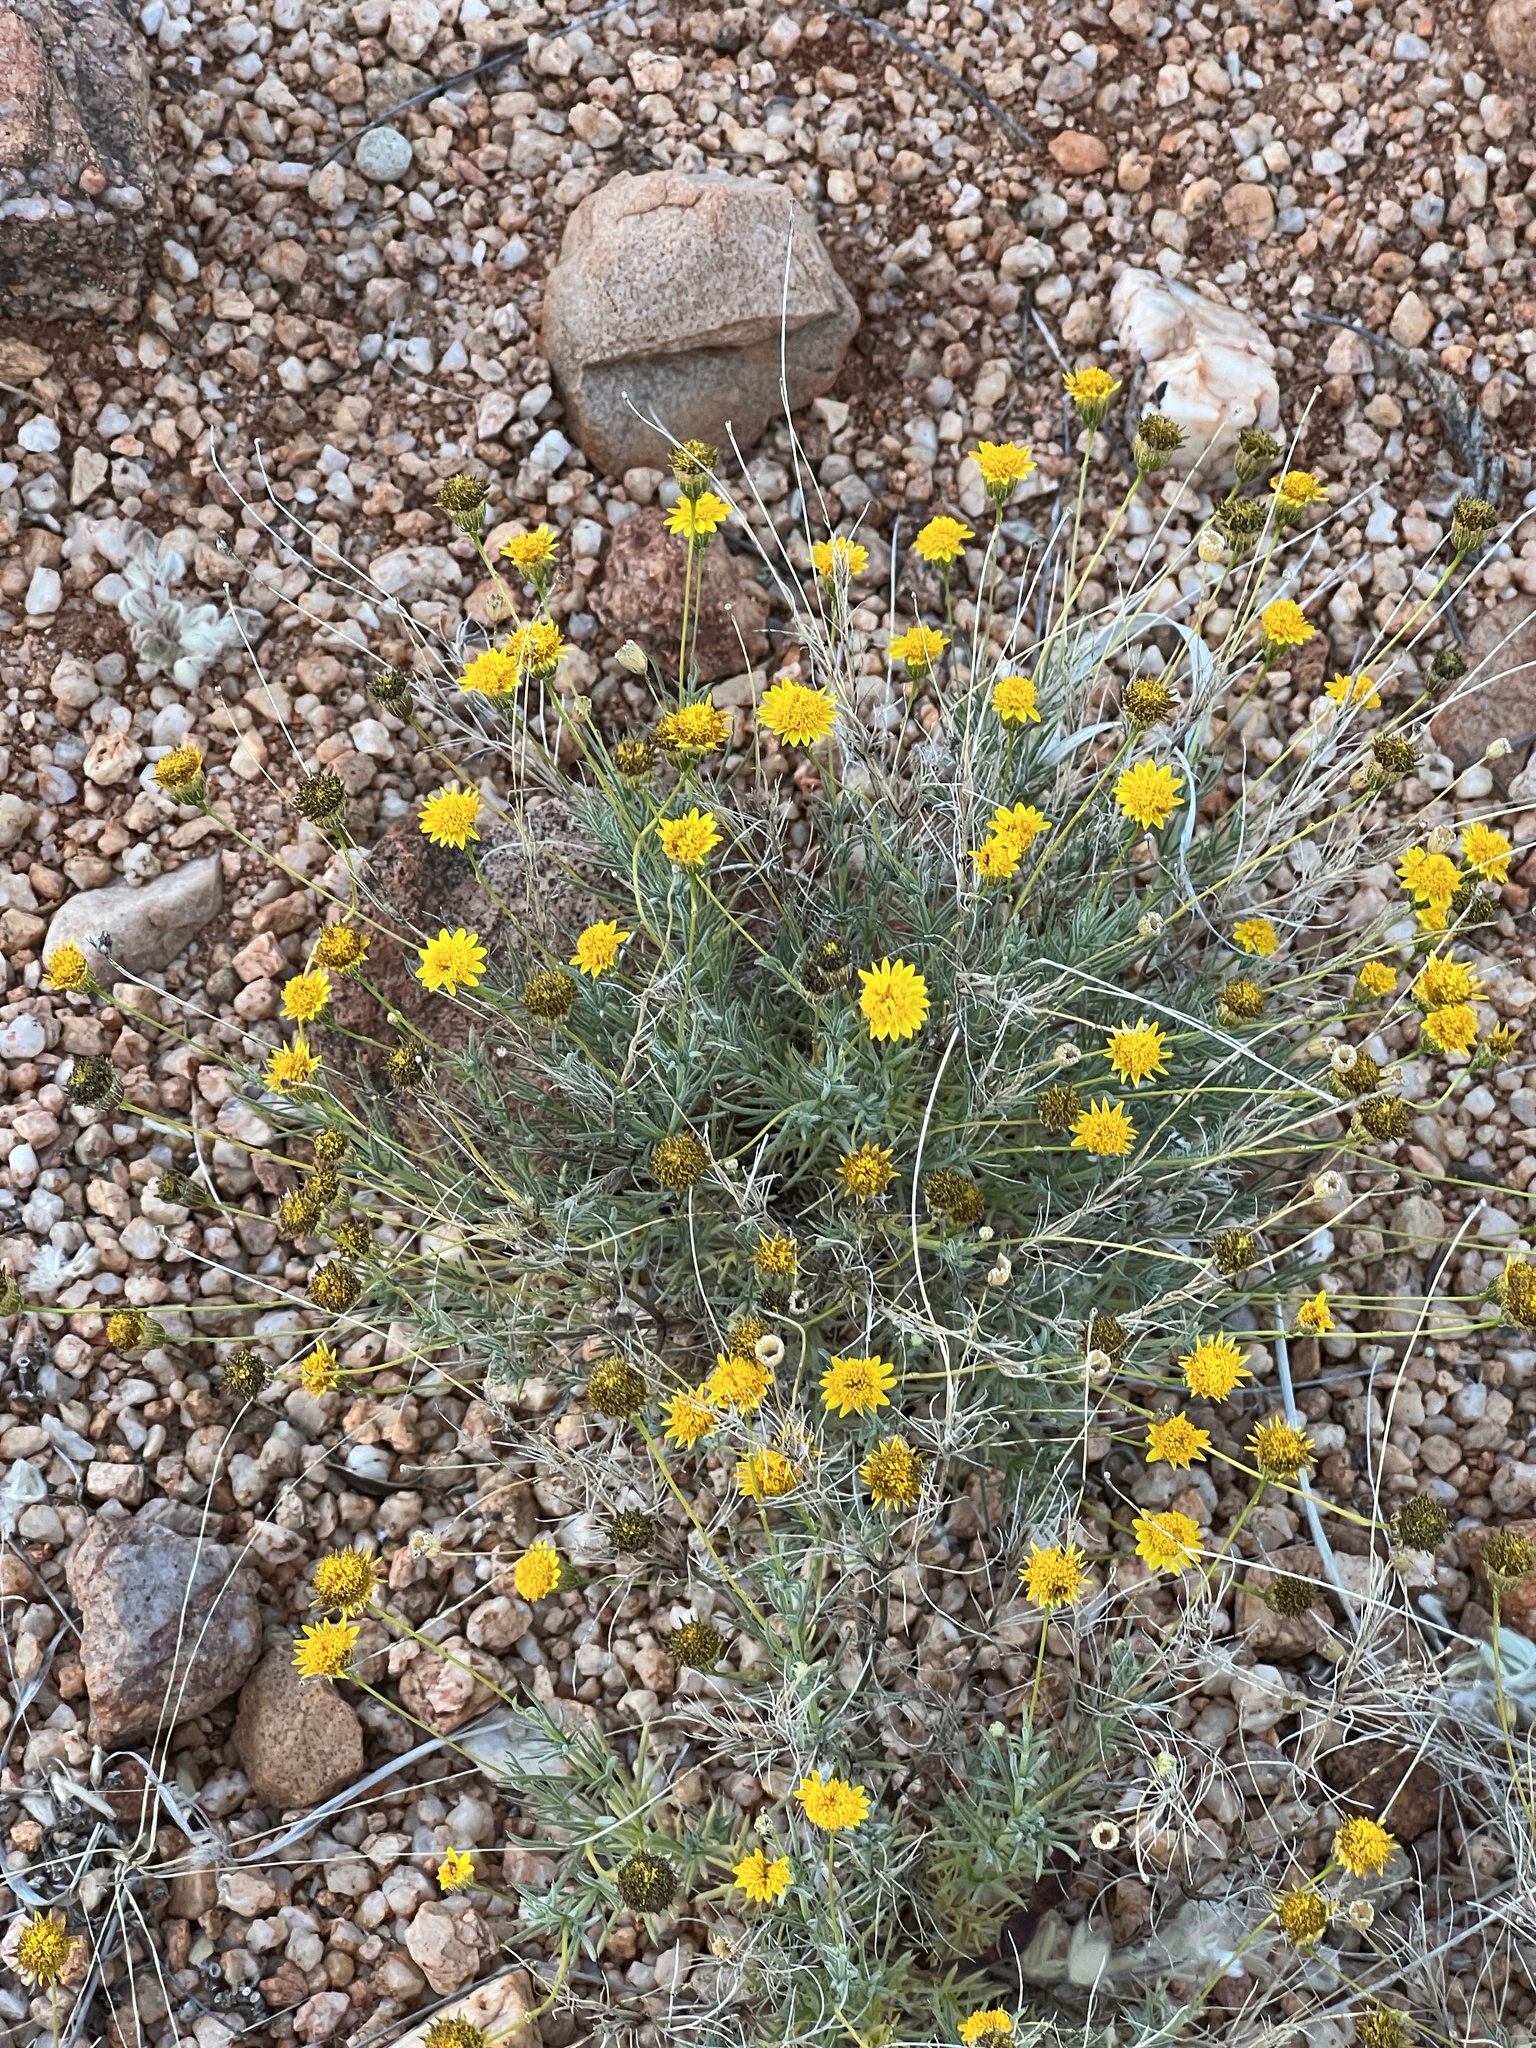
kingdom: Plantae
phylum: Tracheophyta
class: Magnoliopsida
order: Asterales
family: Asteraceae
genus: Thymophylla
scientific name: Thymophylla pentachaeta
